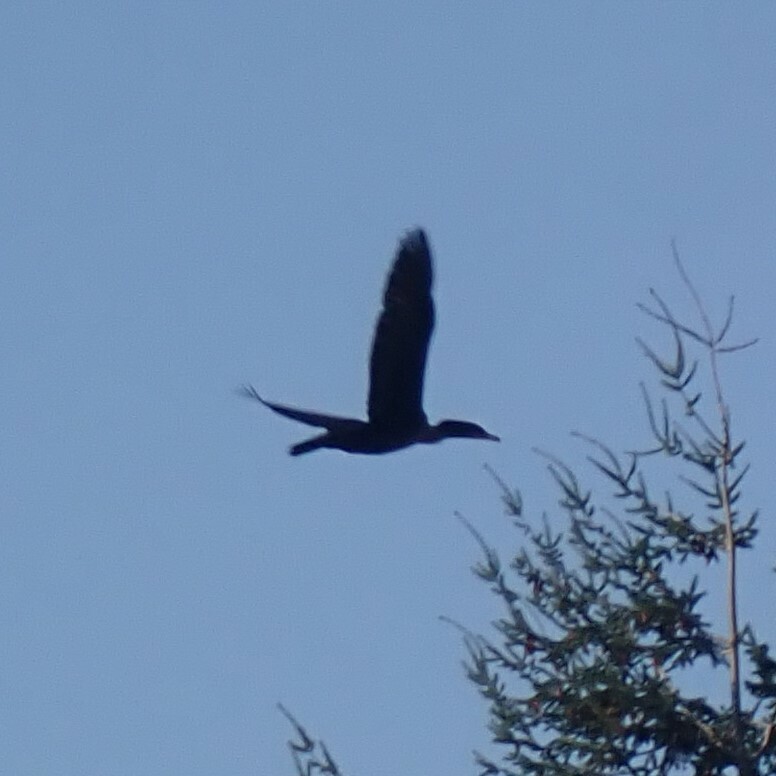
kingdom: Animalia
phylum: Chordata
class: Aves
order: Suliformes
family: Phalacrocoracidae
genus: Phalacrocorax
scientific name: Phalacrocorax auritus
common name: Double-crested cormorant
